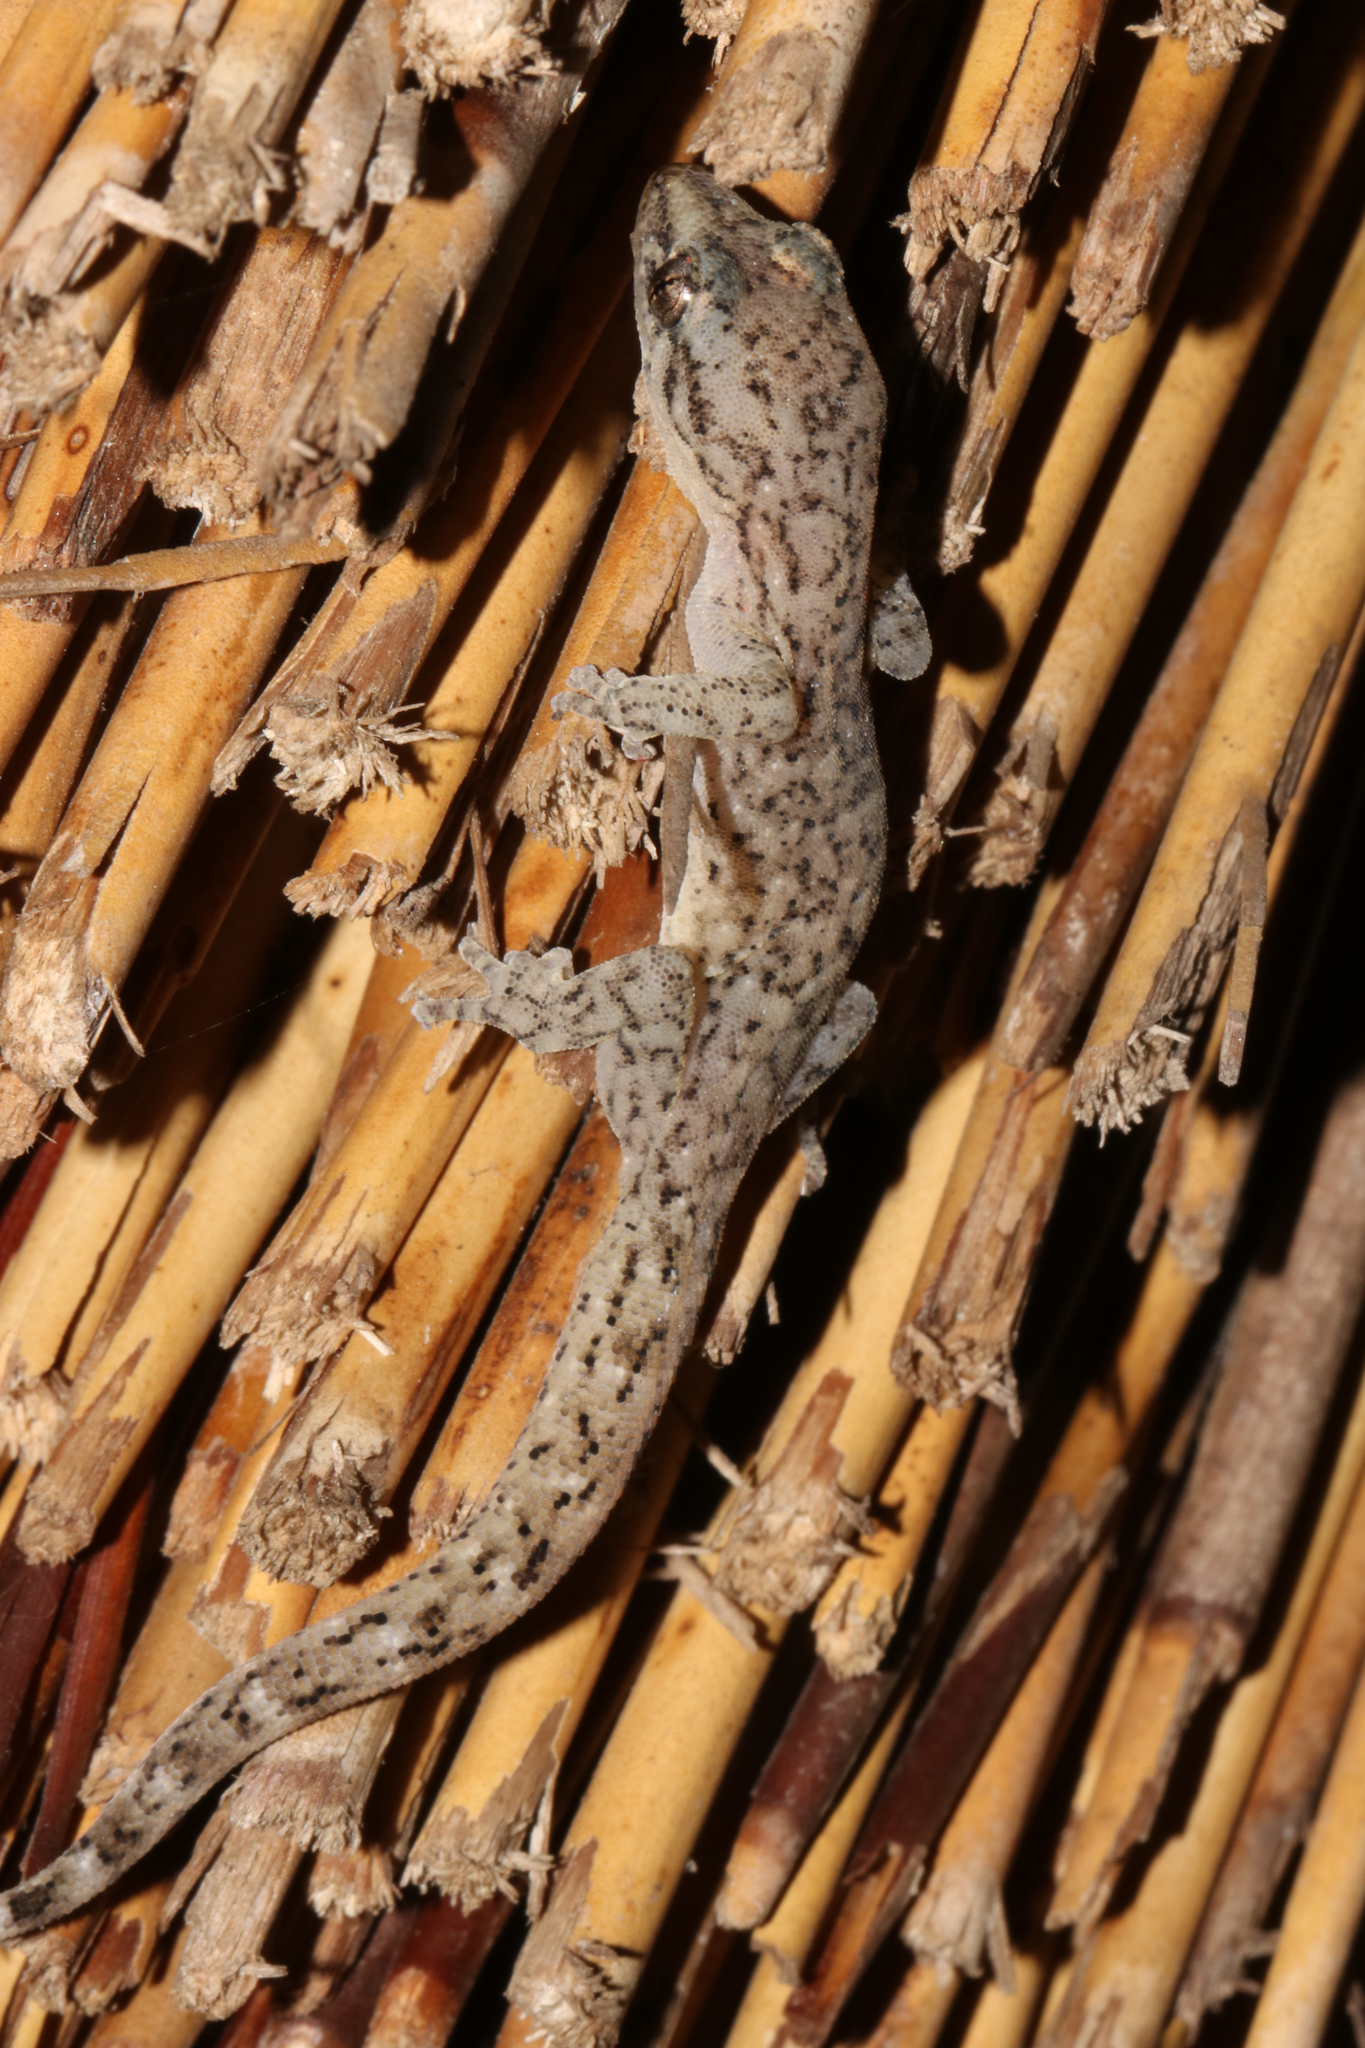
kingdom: Animalia
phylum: Chordata
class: Squamata
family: Gekkonidae
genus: Afrogecko
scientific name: Afrogecko porphyreus
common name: Marbled leaf-toed gecko
